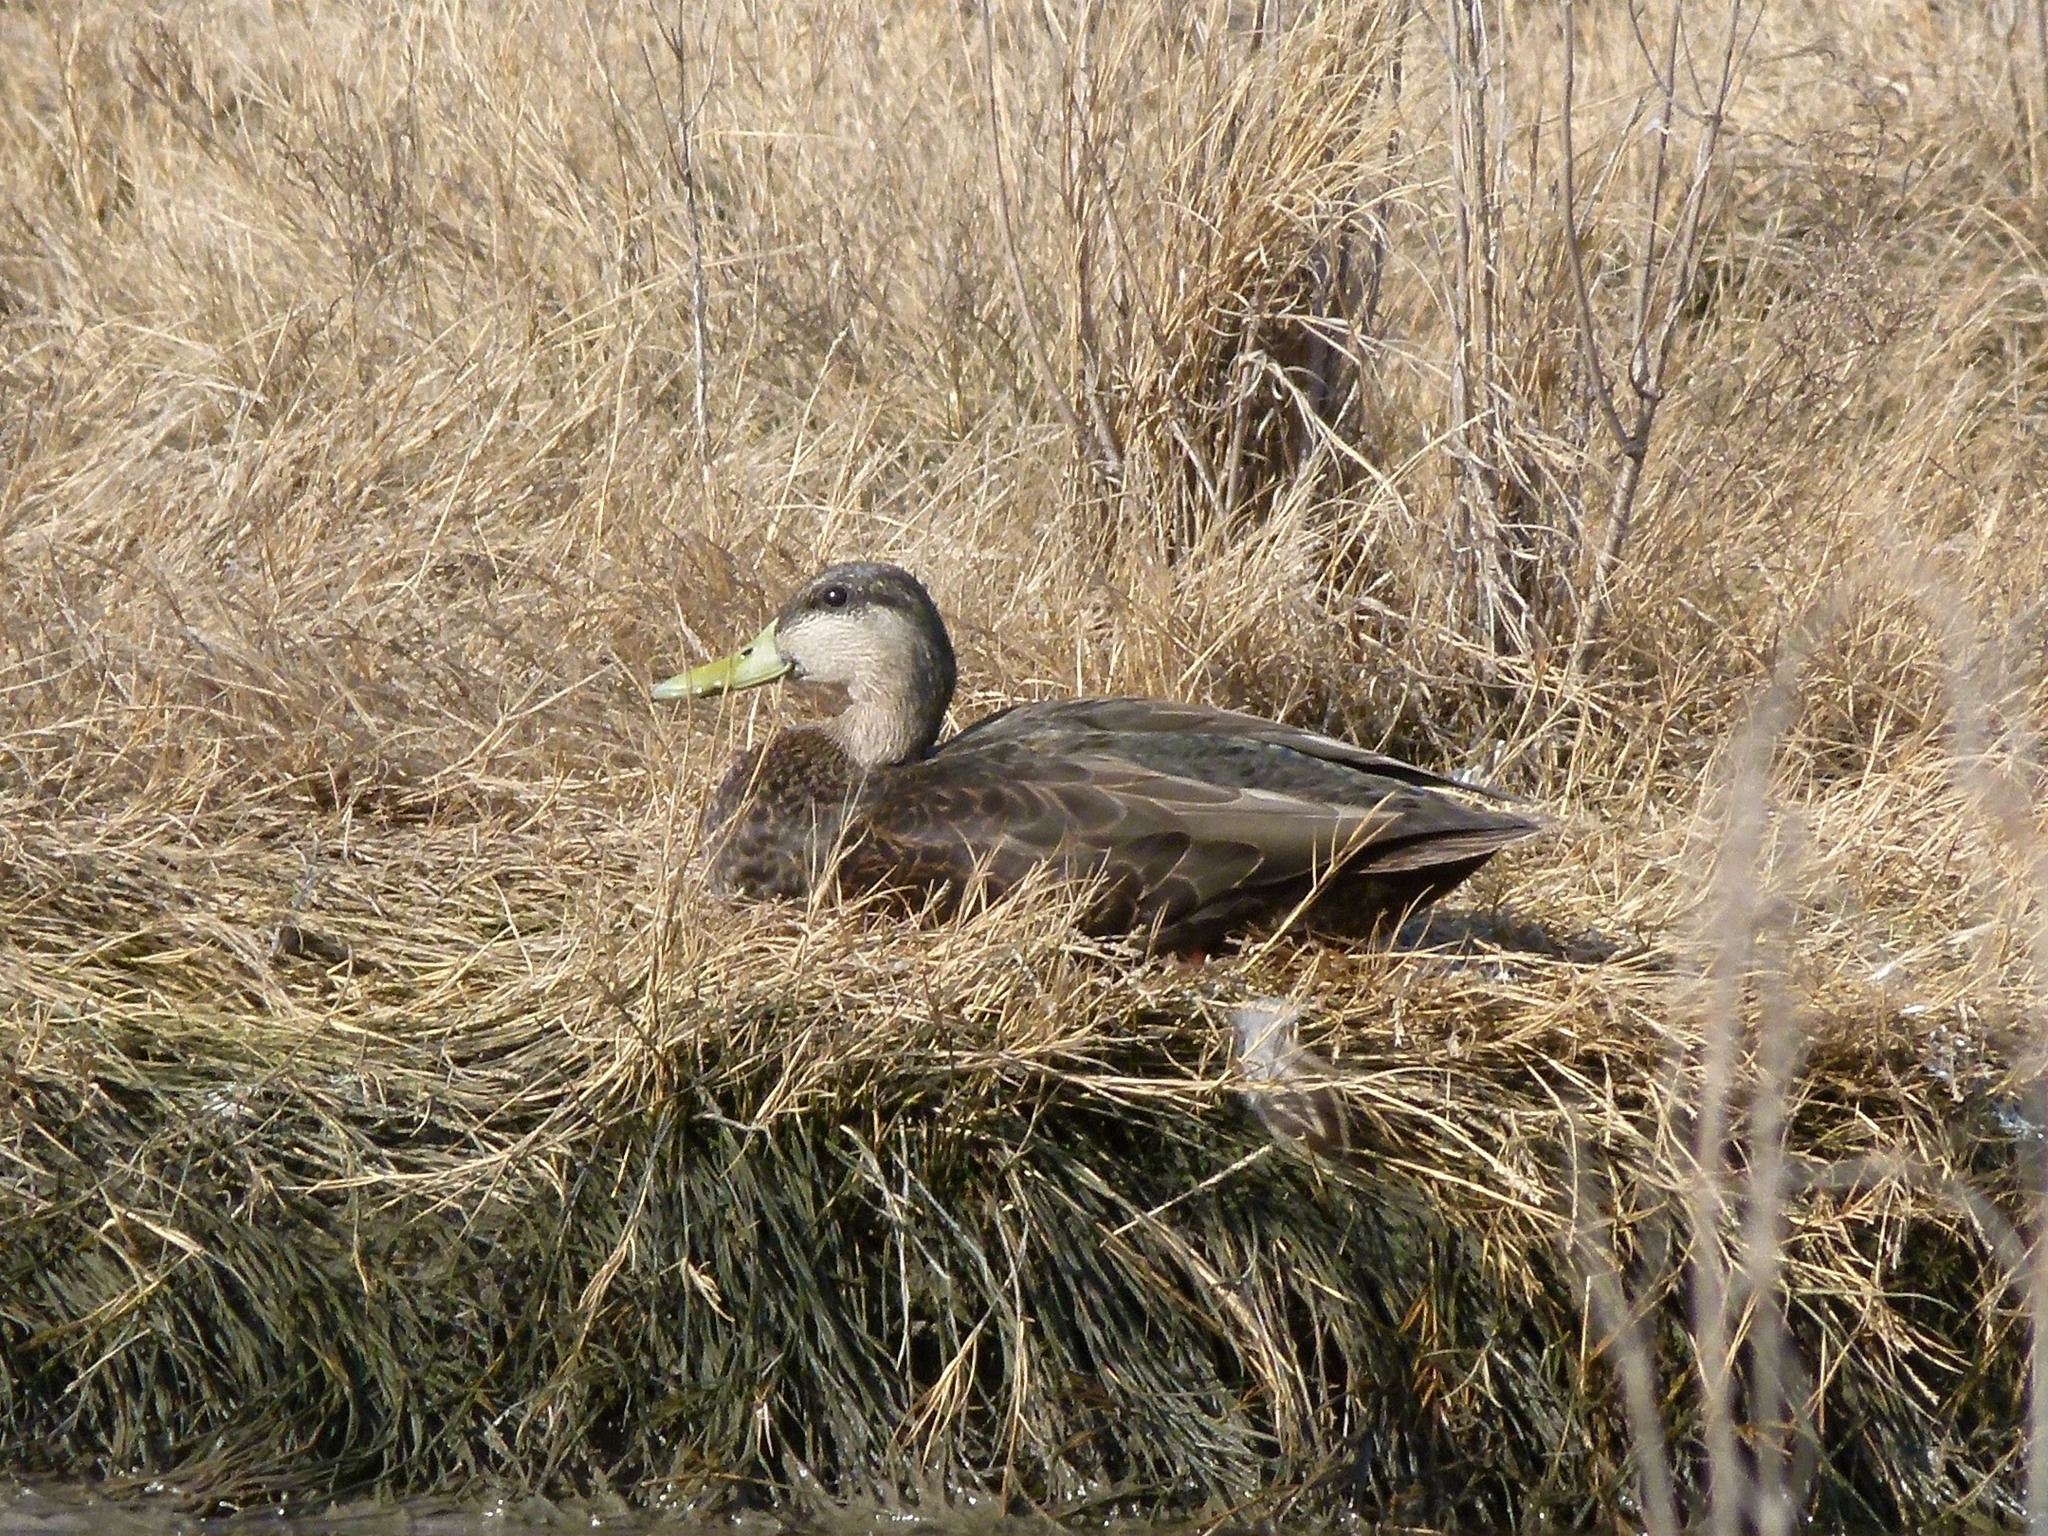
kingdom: Animalia
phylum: Chordata
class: Aves
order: Anseriformes
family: Anatidae
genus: Anas
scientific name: Anas rubripes
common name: American black duck
